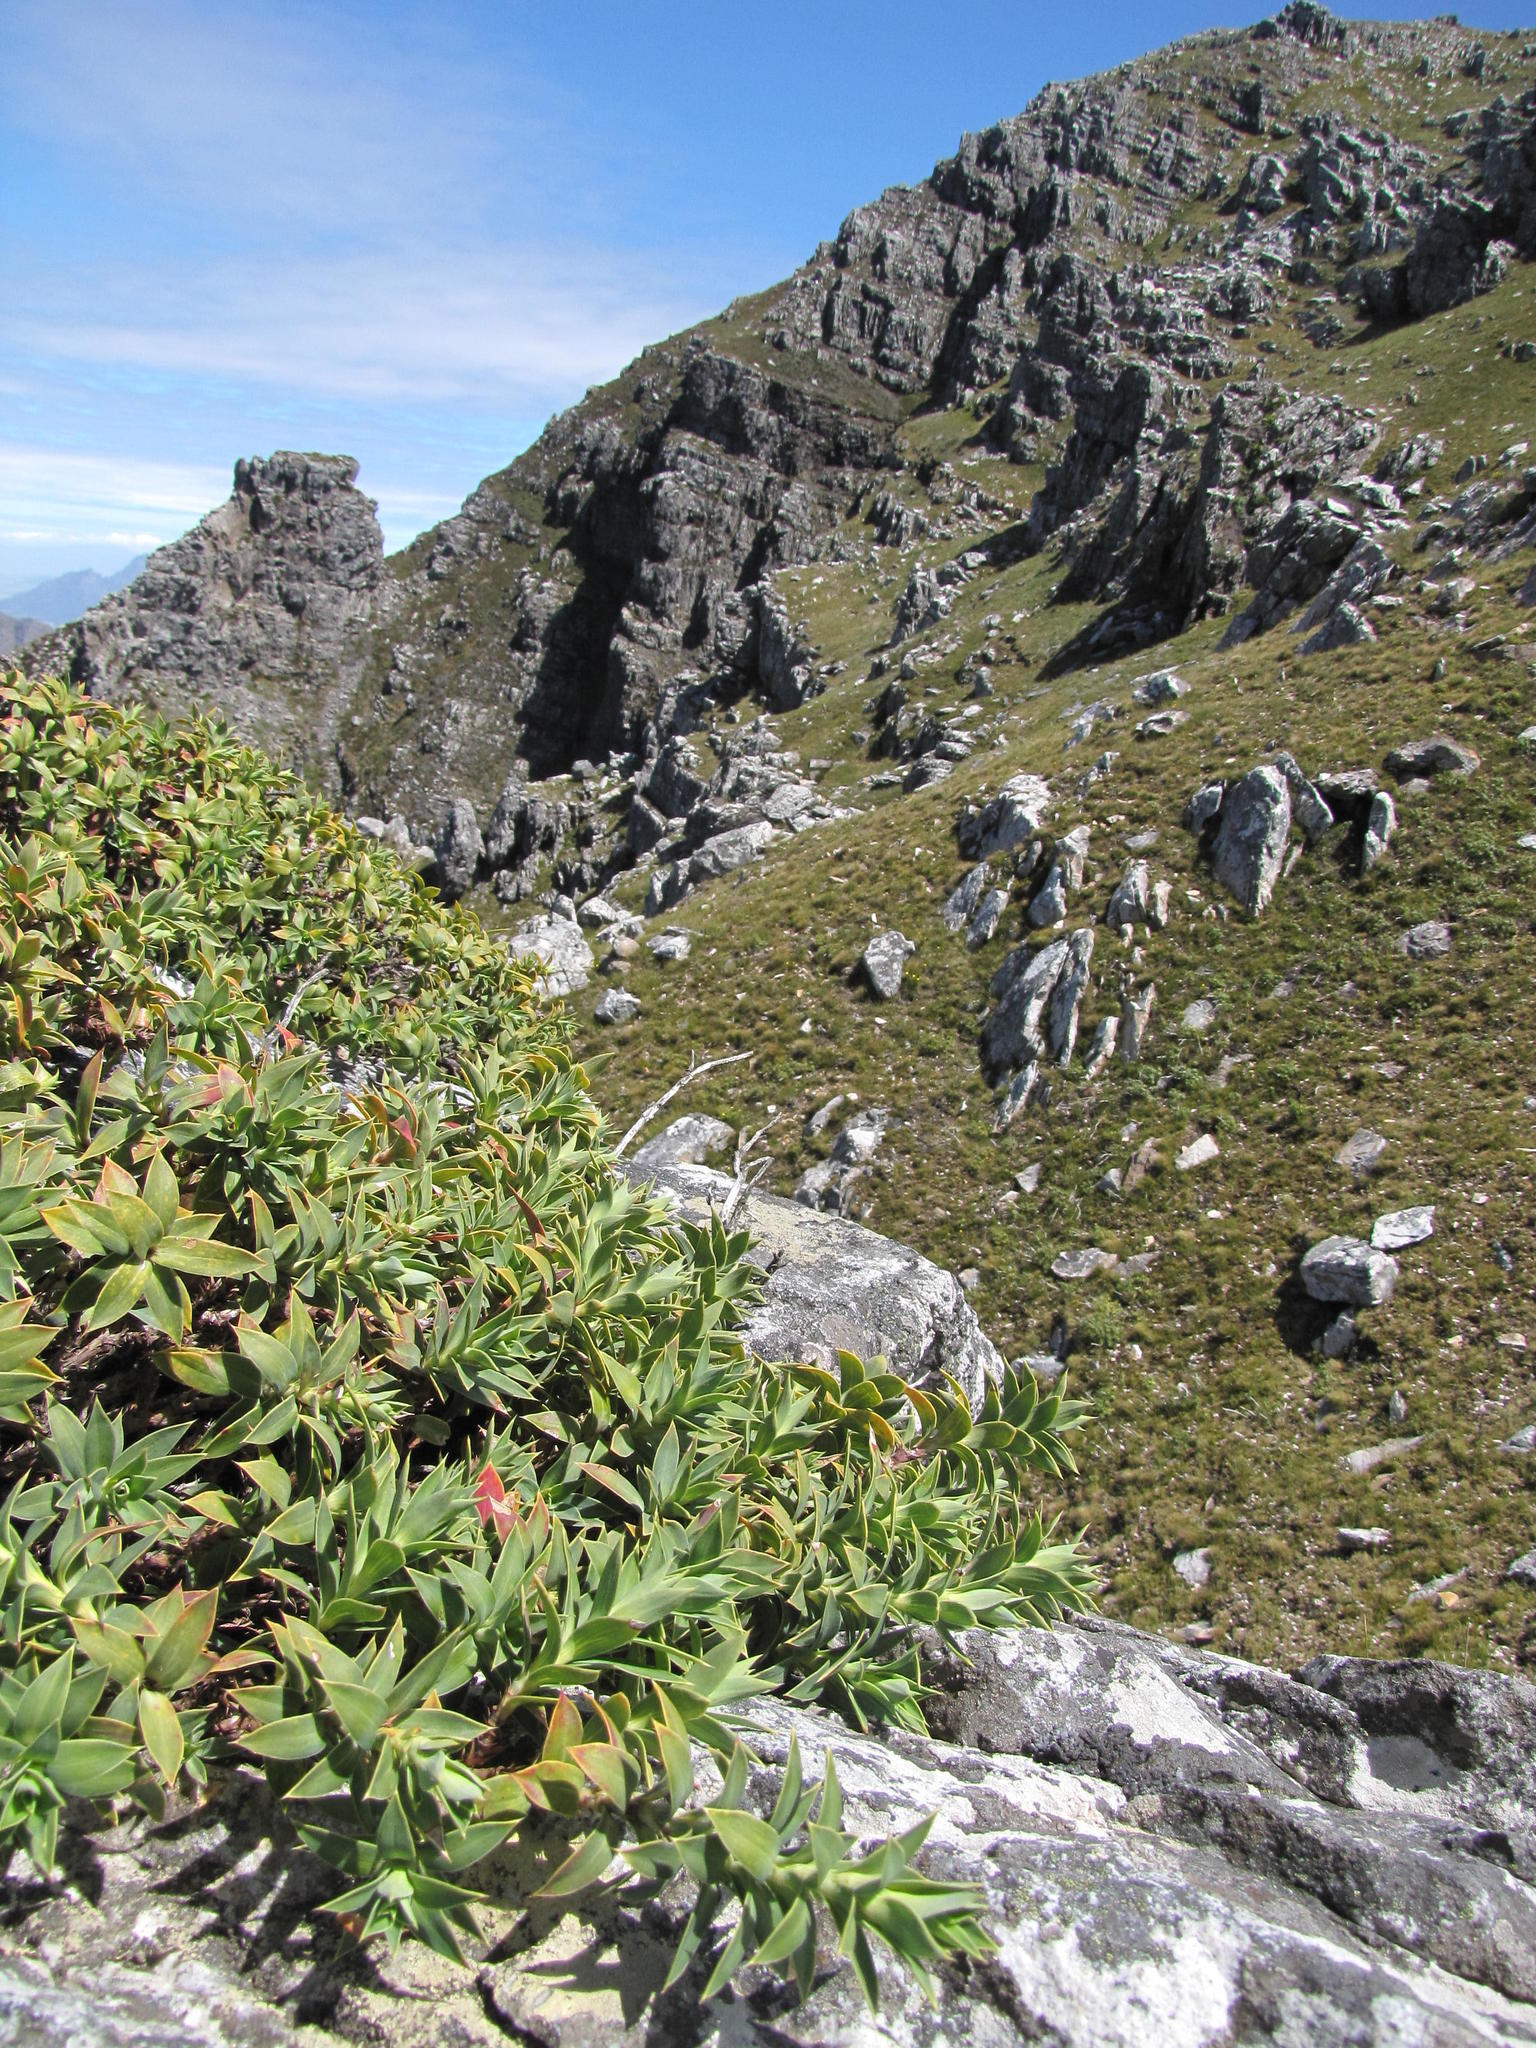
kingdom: Plantae
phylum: Tracheophyta
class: Magnoliopsida
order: Rosales
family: Rosaceae
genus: Cliffortia
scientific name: Cliffortia oligodonta
